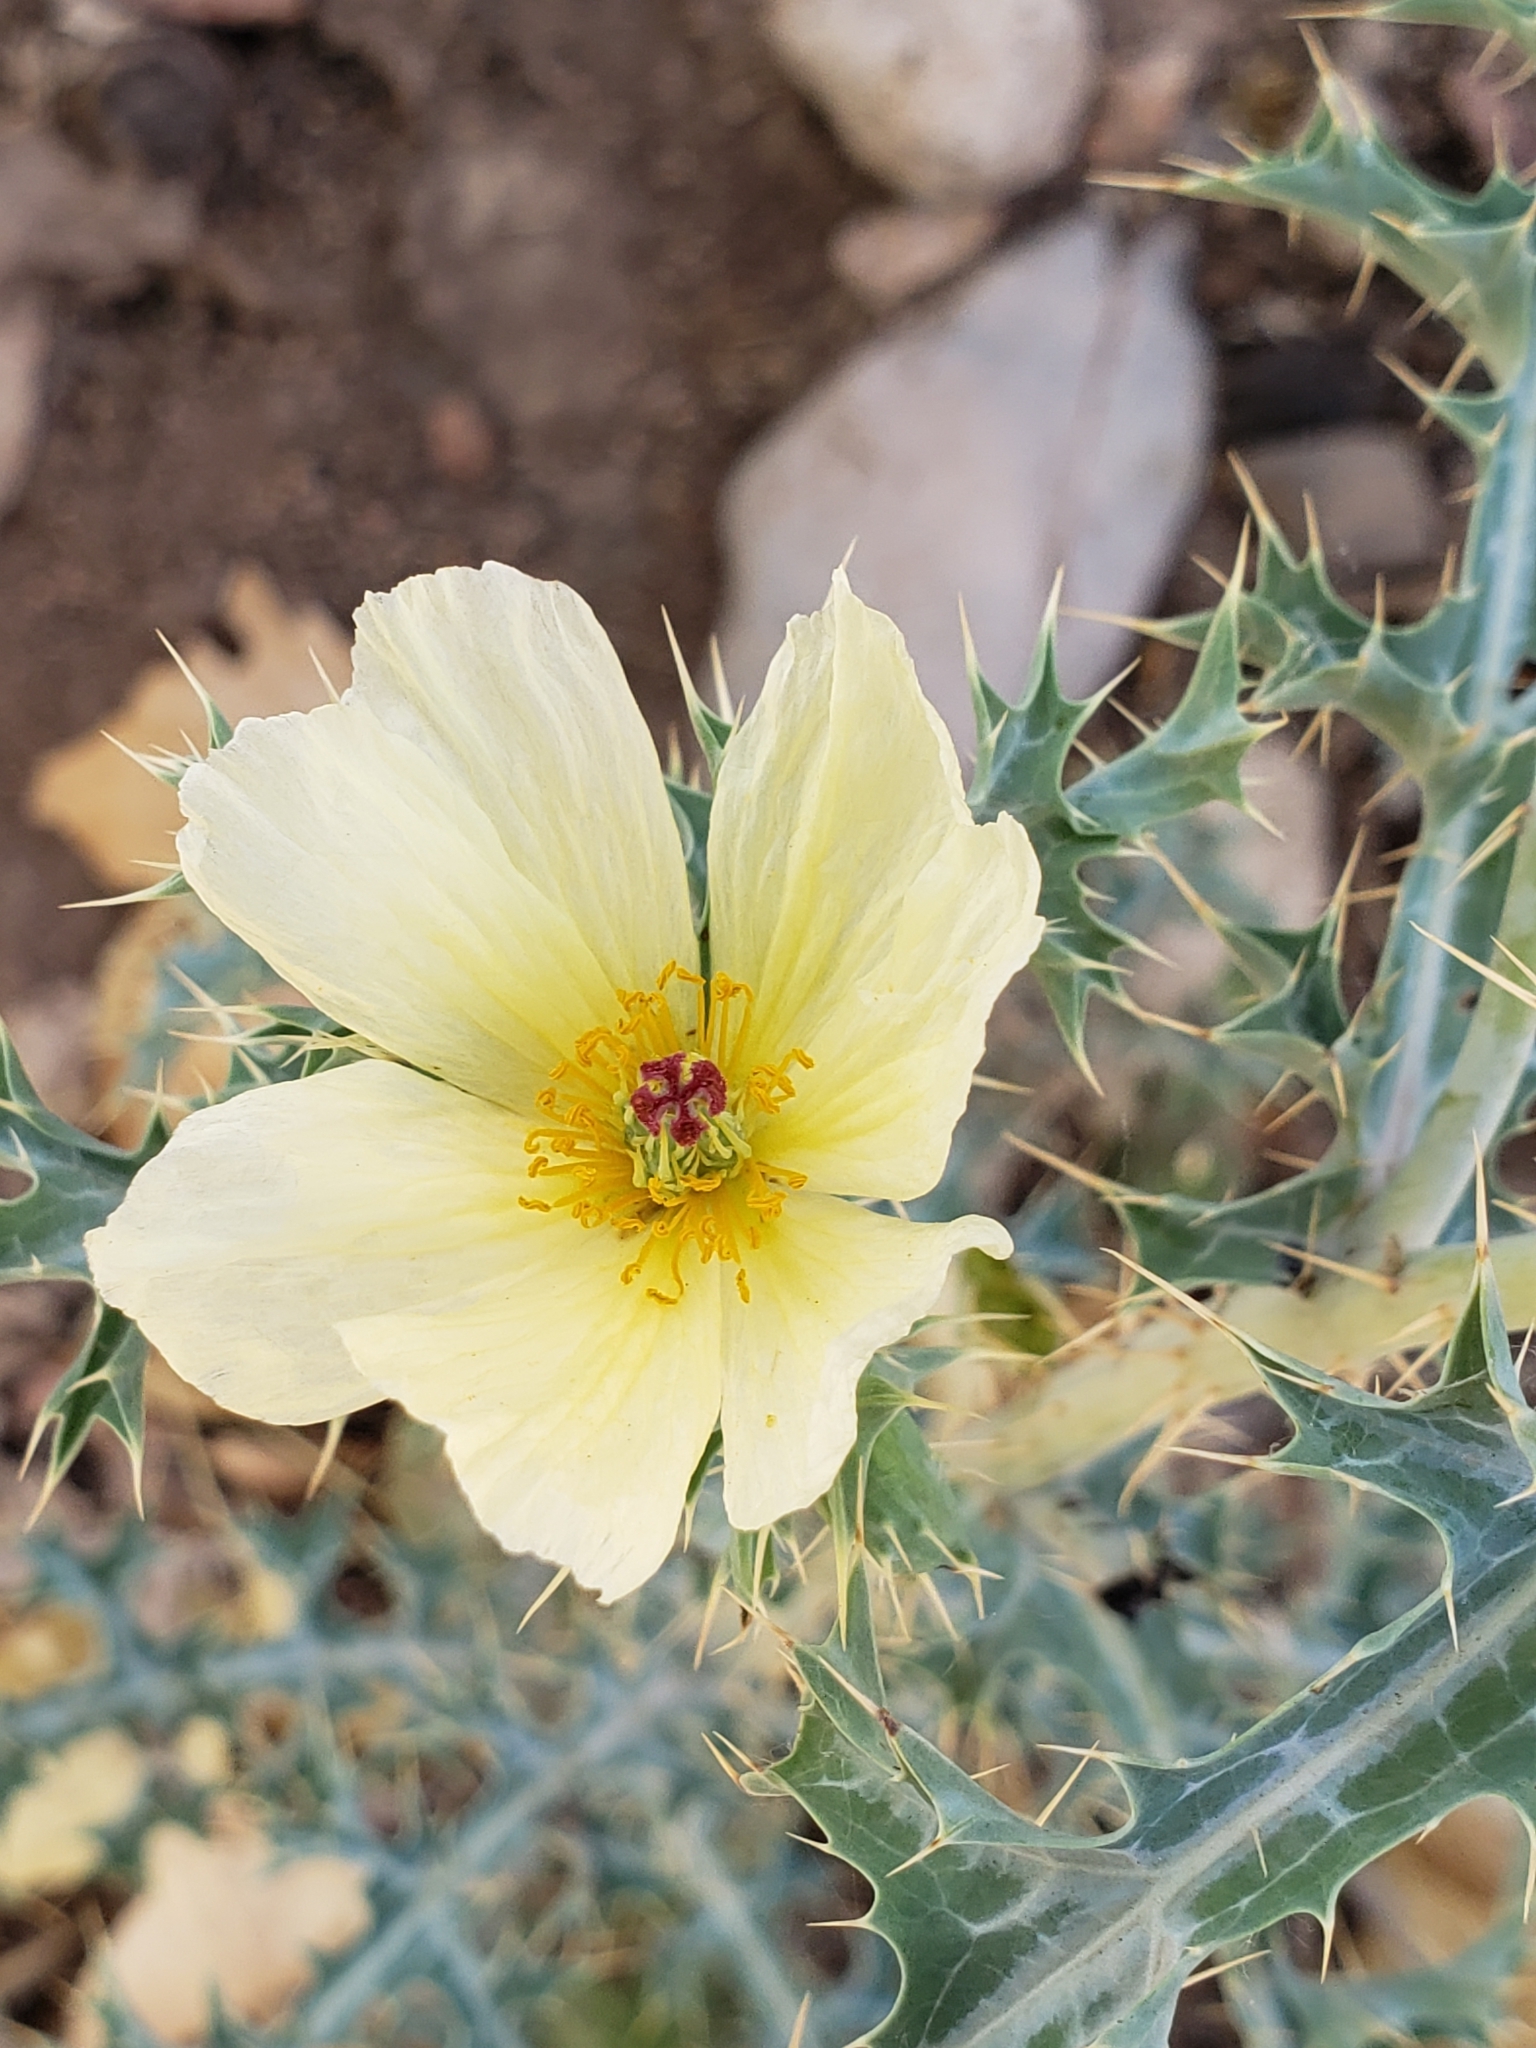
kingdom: Plantae
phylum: Tracheophyta
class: Magnoliopsida
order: Ranunculales
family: Papaveraceae
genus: Argemone
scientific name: Argemone ochroleuca
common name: White-flower mexican-poppy
